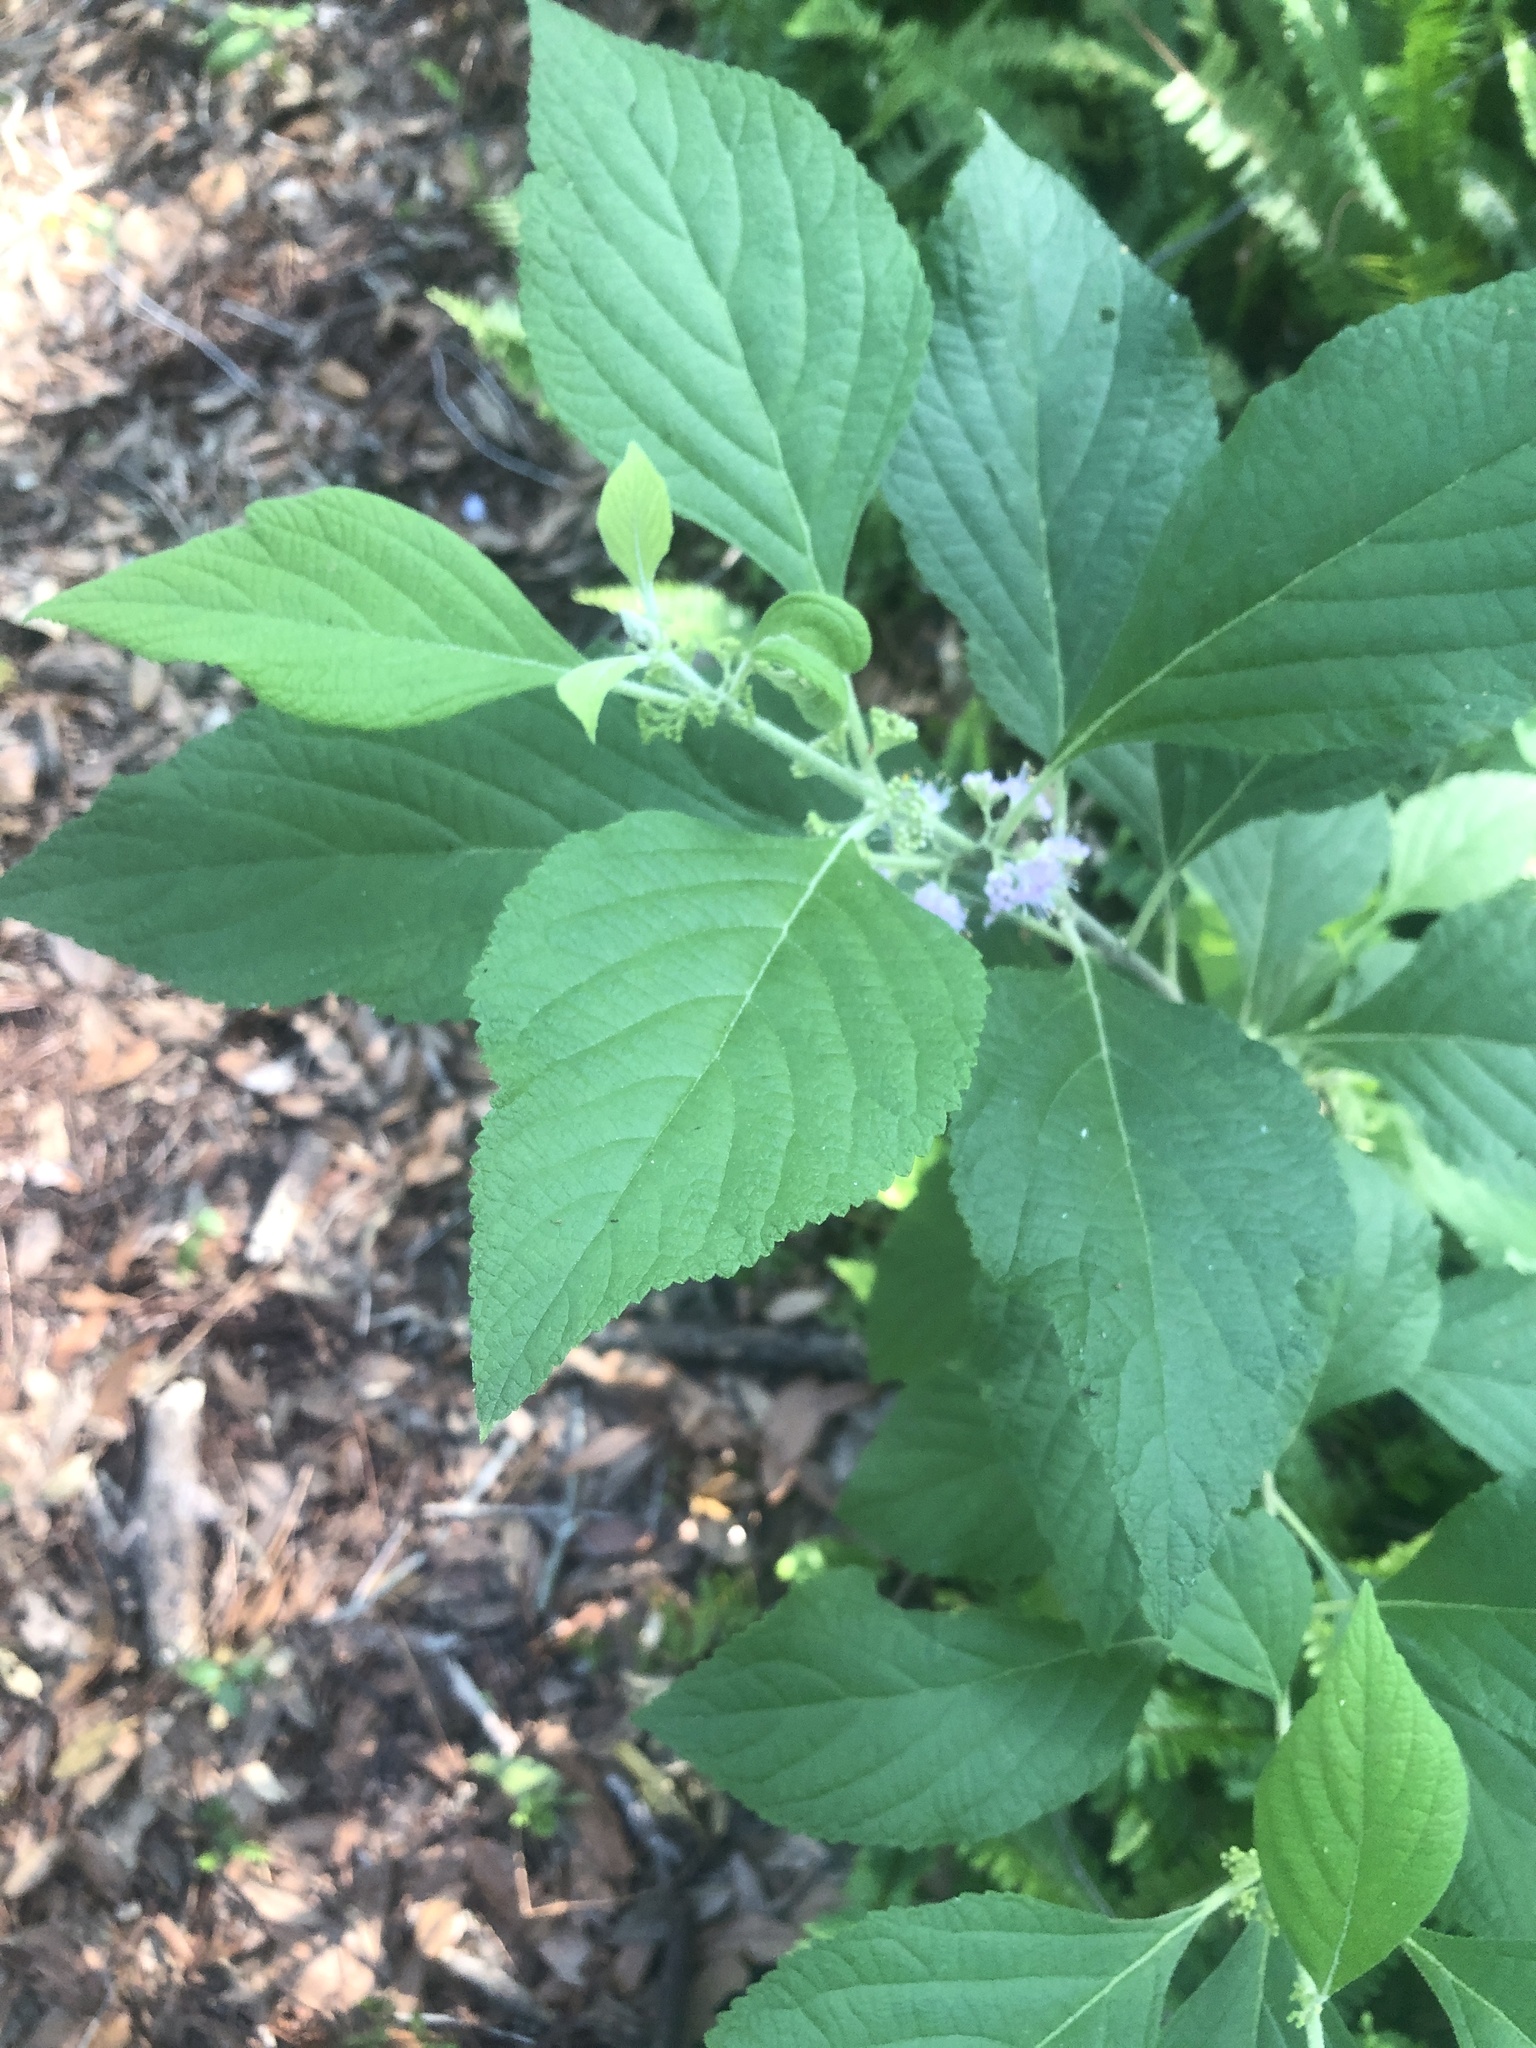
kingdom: Plantae
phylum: Tracheophyta
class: Magnoliopsida
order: Lamiales
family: Lamiaceae
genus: Callicarpa
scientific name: Callicarpa americana
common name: American beautyberry
